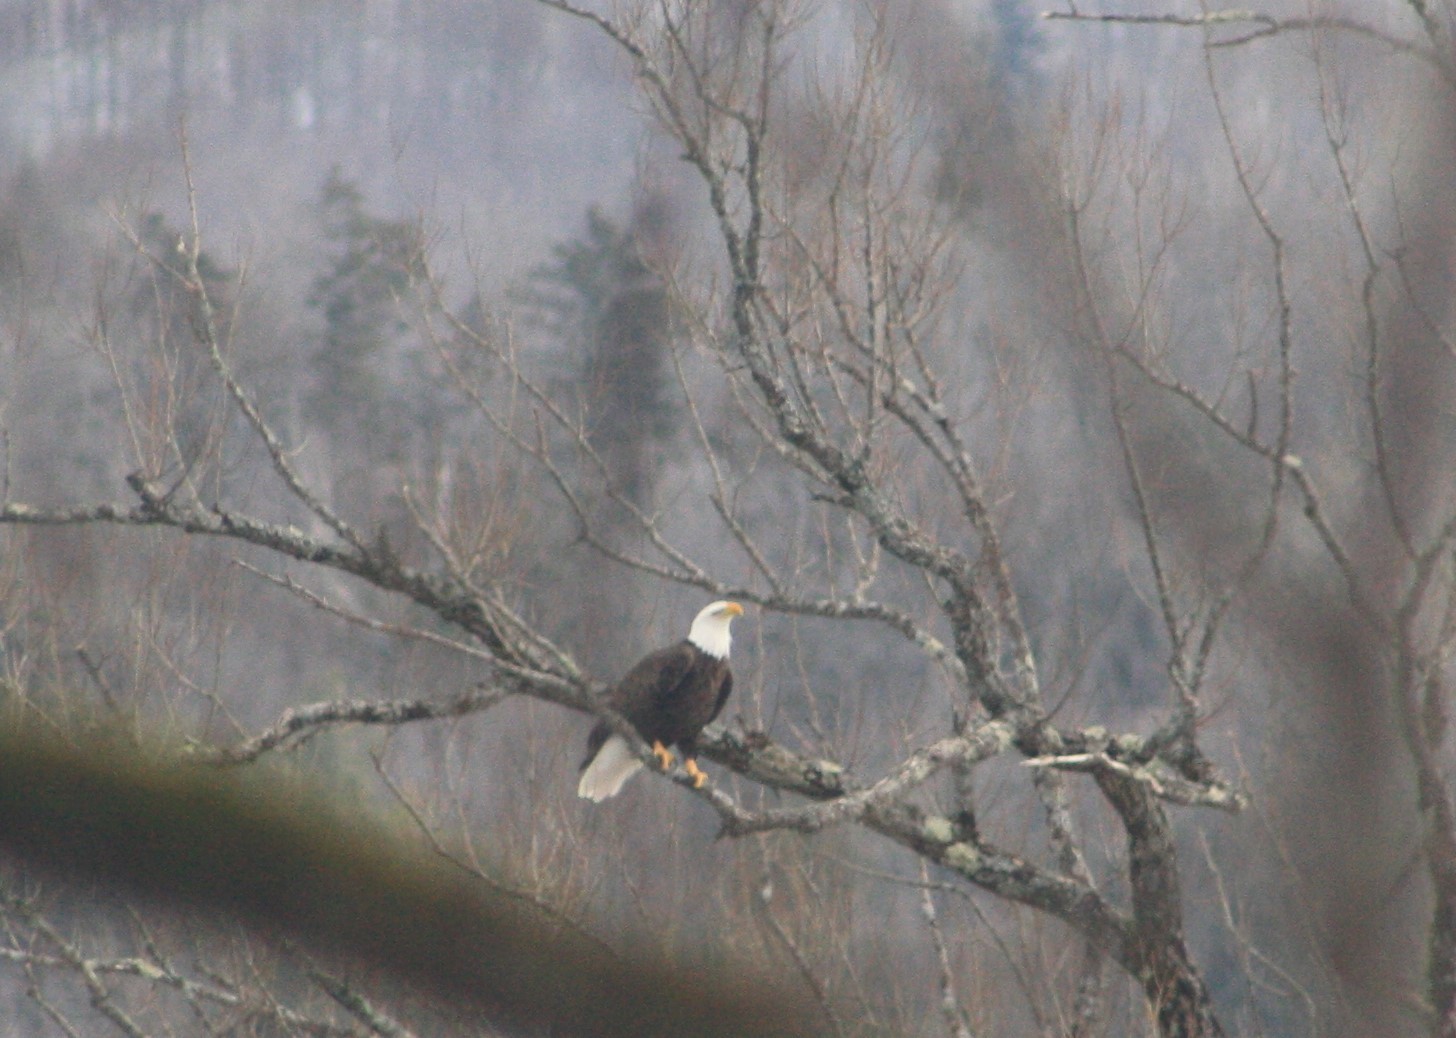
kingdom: Animalia
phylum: Chordata
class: Aves
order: Accipitriformes
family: Accipitridae
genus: Haliaeetus
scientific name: Haliaeetus leucocephalus
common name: Bald eagle
